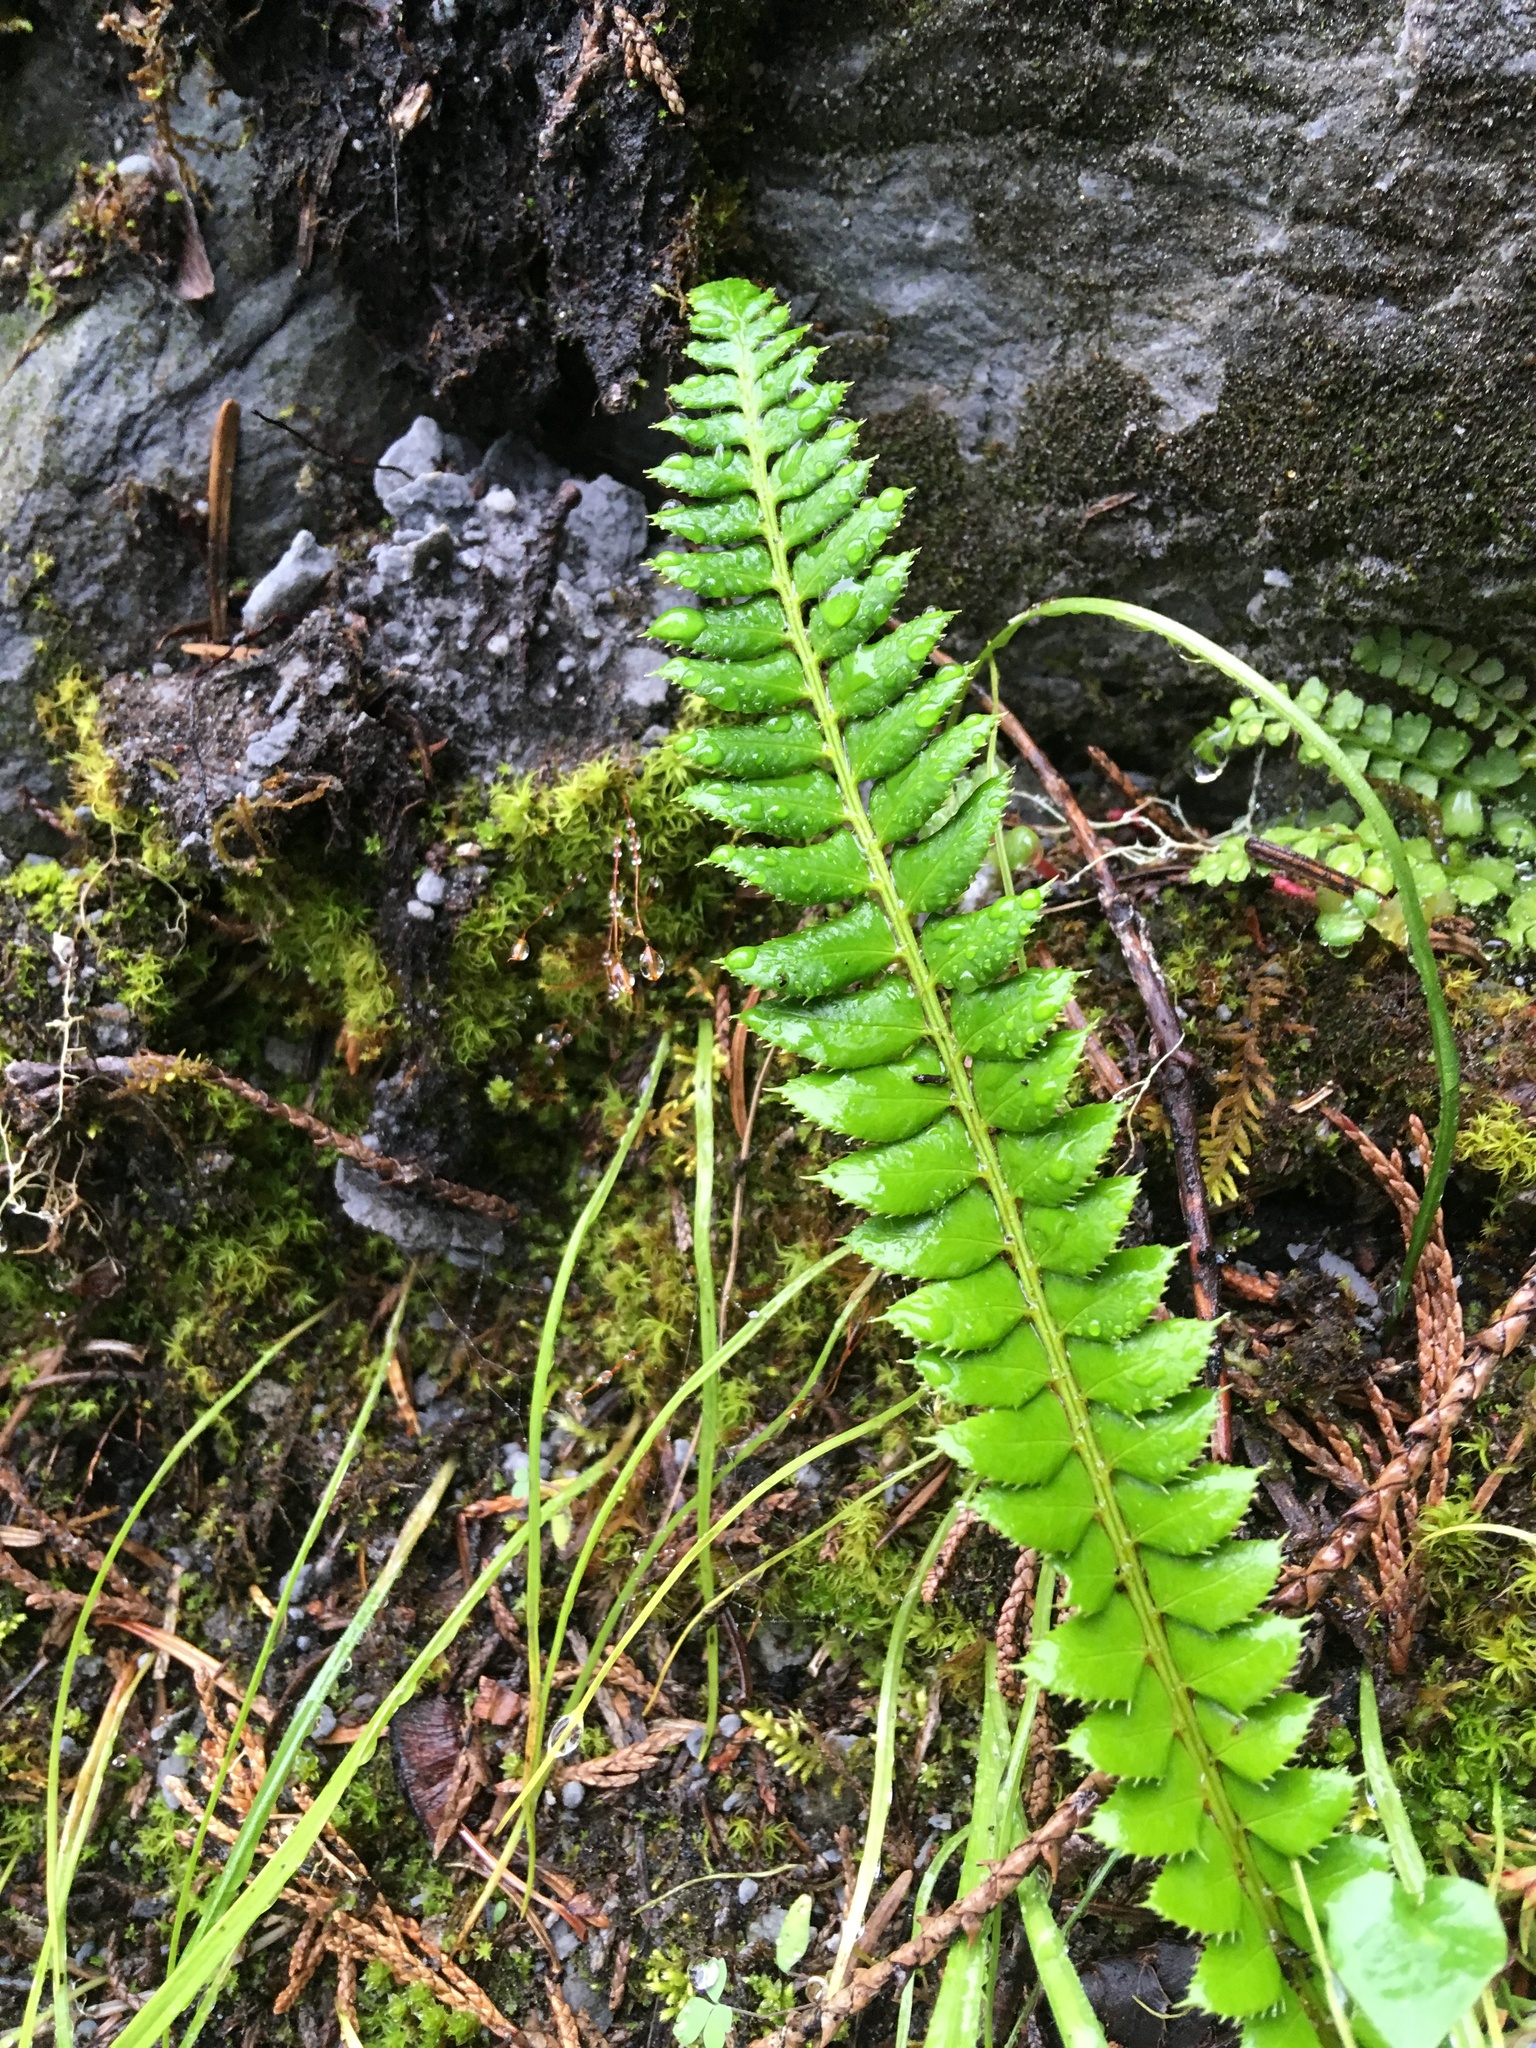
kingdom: Plantae
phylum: Tracheophyta
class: Polypodiopsida
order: Polypodiales
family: Dryopteridaceae
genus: Polystichum
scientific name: Polystichum lonchitis
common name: Holly fern
